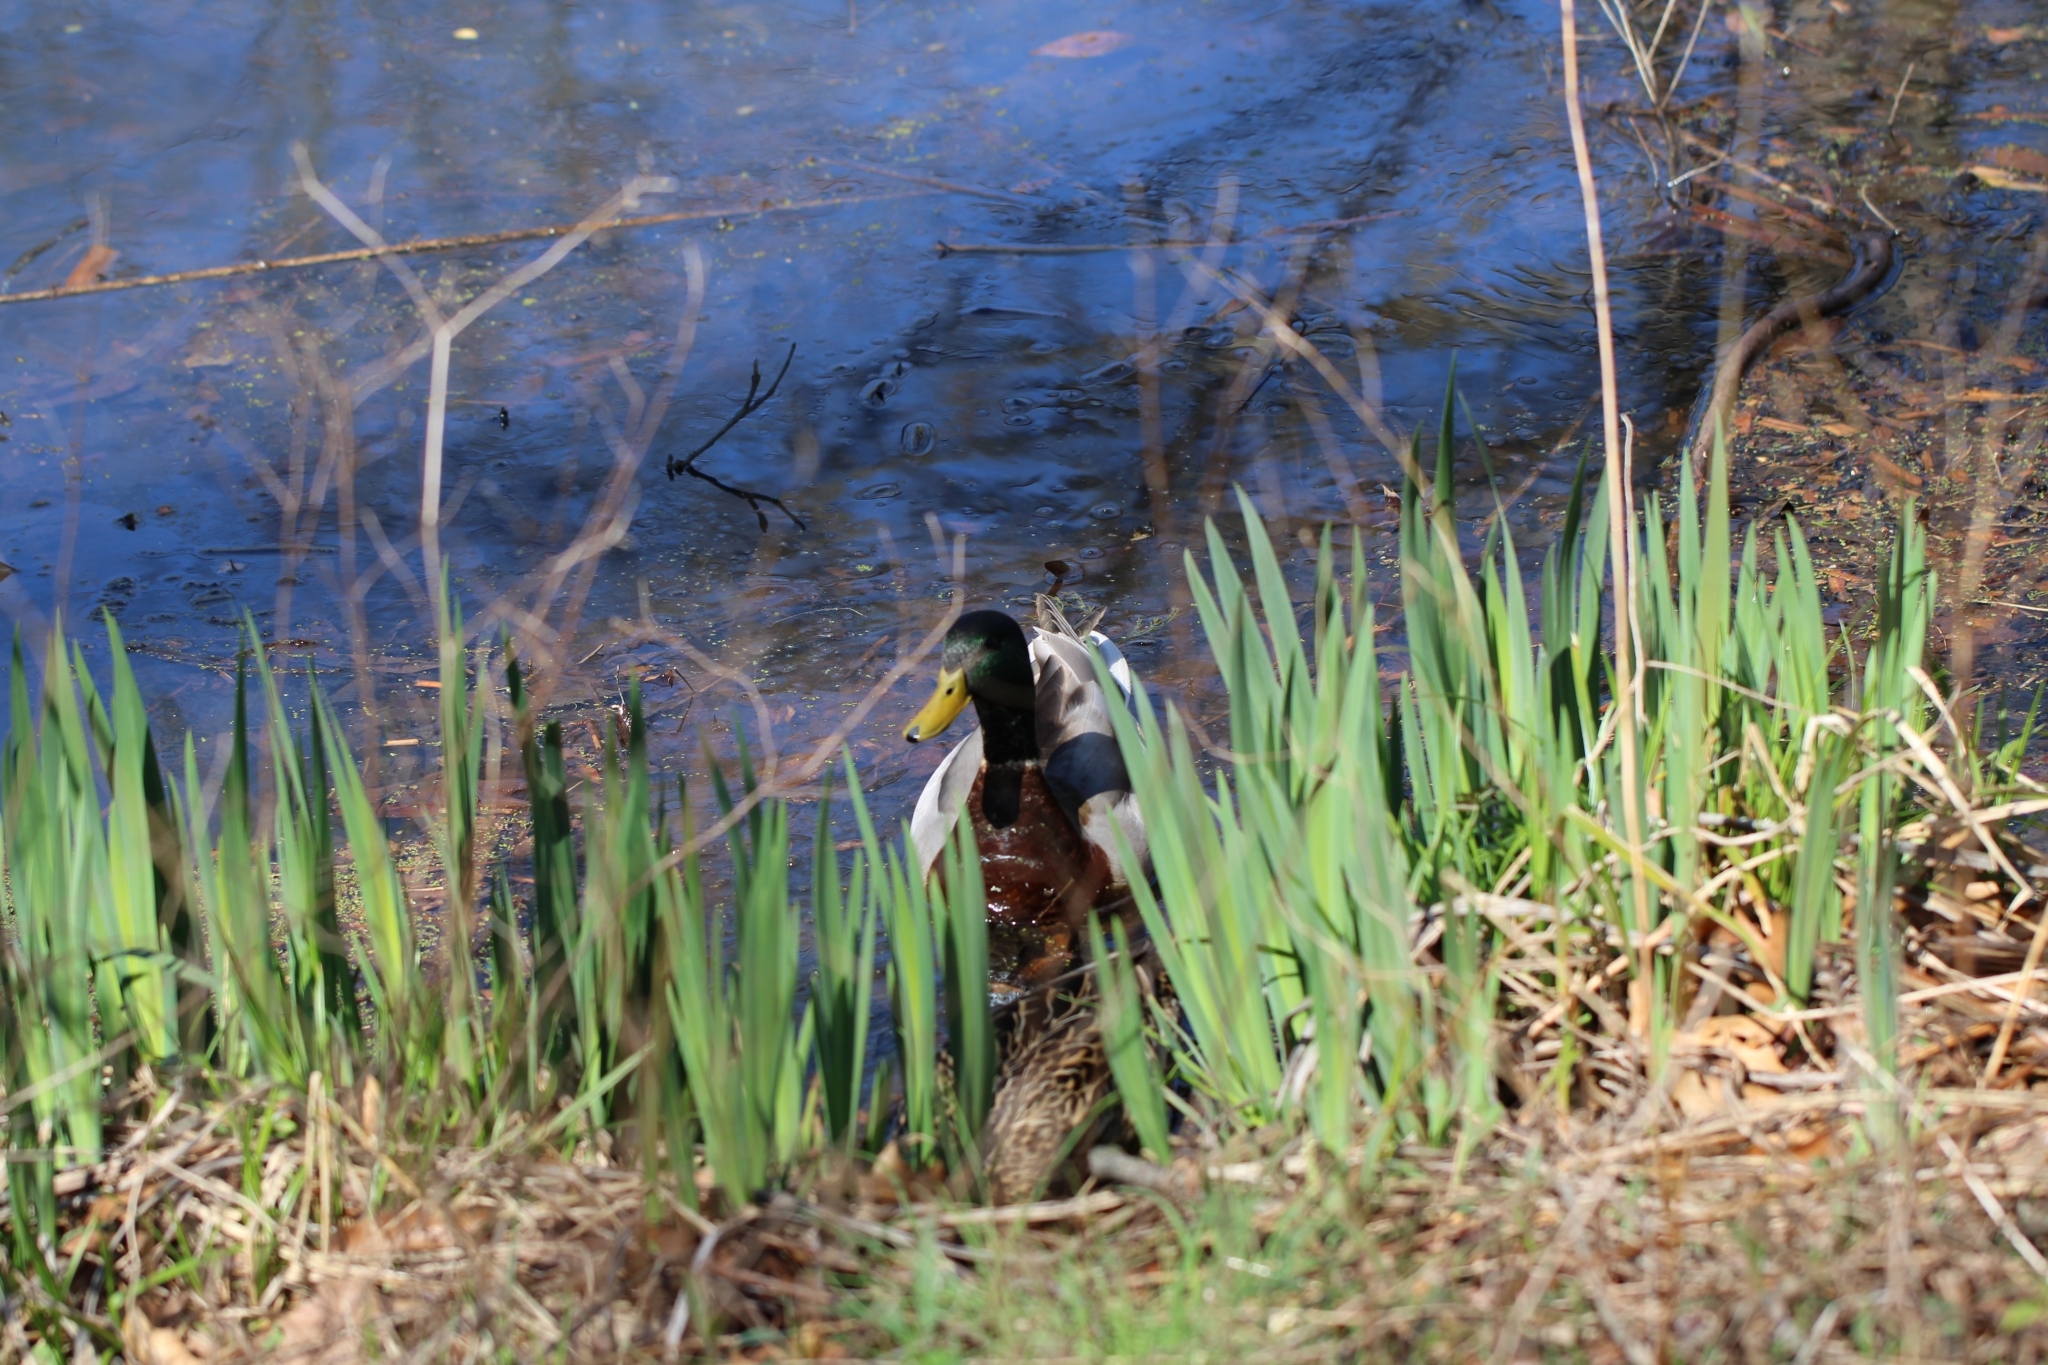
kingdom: Animalia
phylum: Chordata
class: Aves
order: Anseriformes
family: Anatidae
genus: Anas
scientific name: Anas platyrhynchos
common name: Mallard
